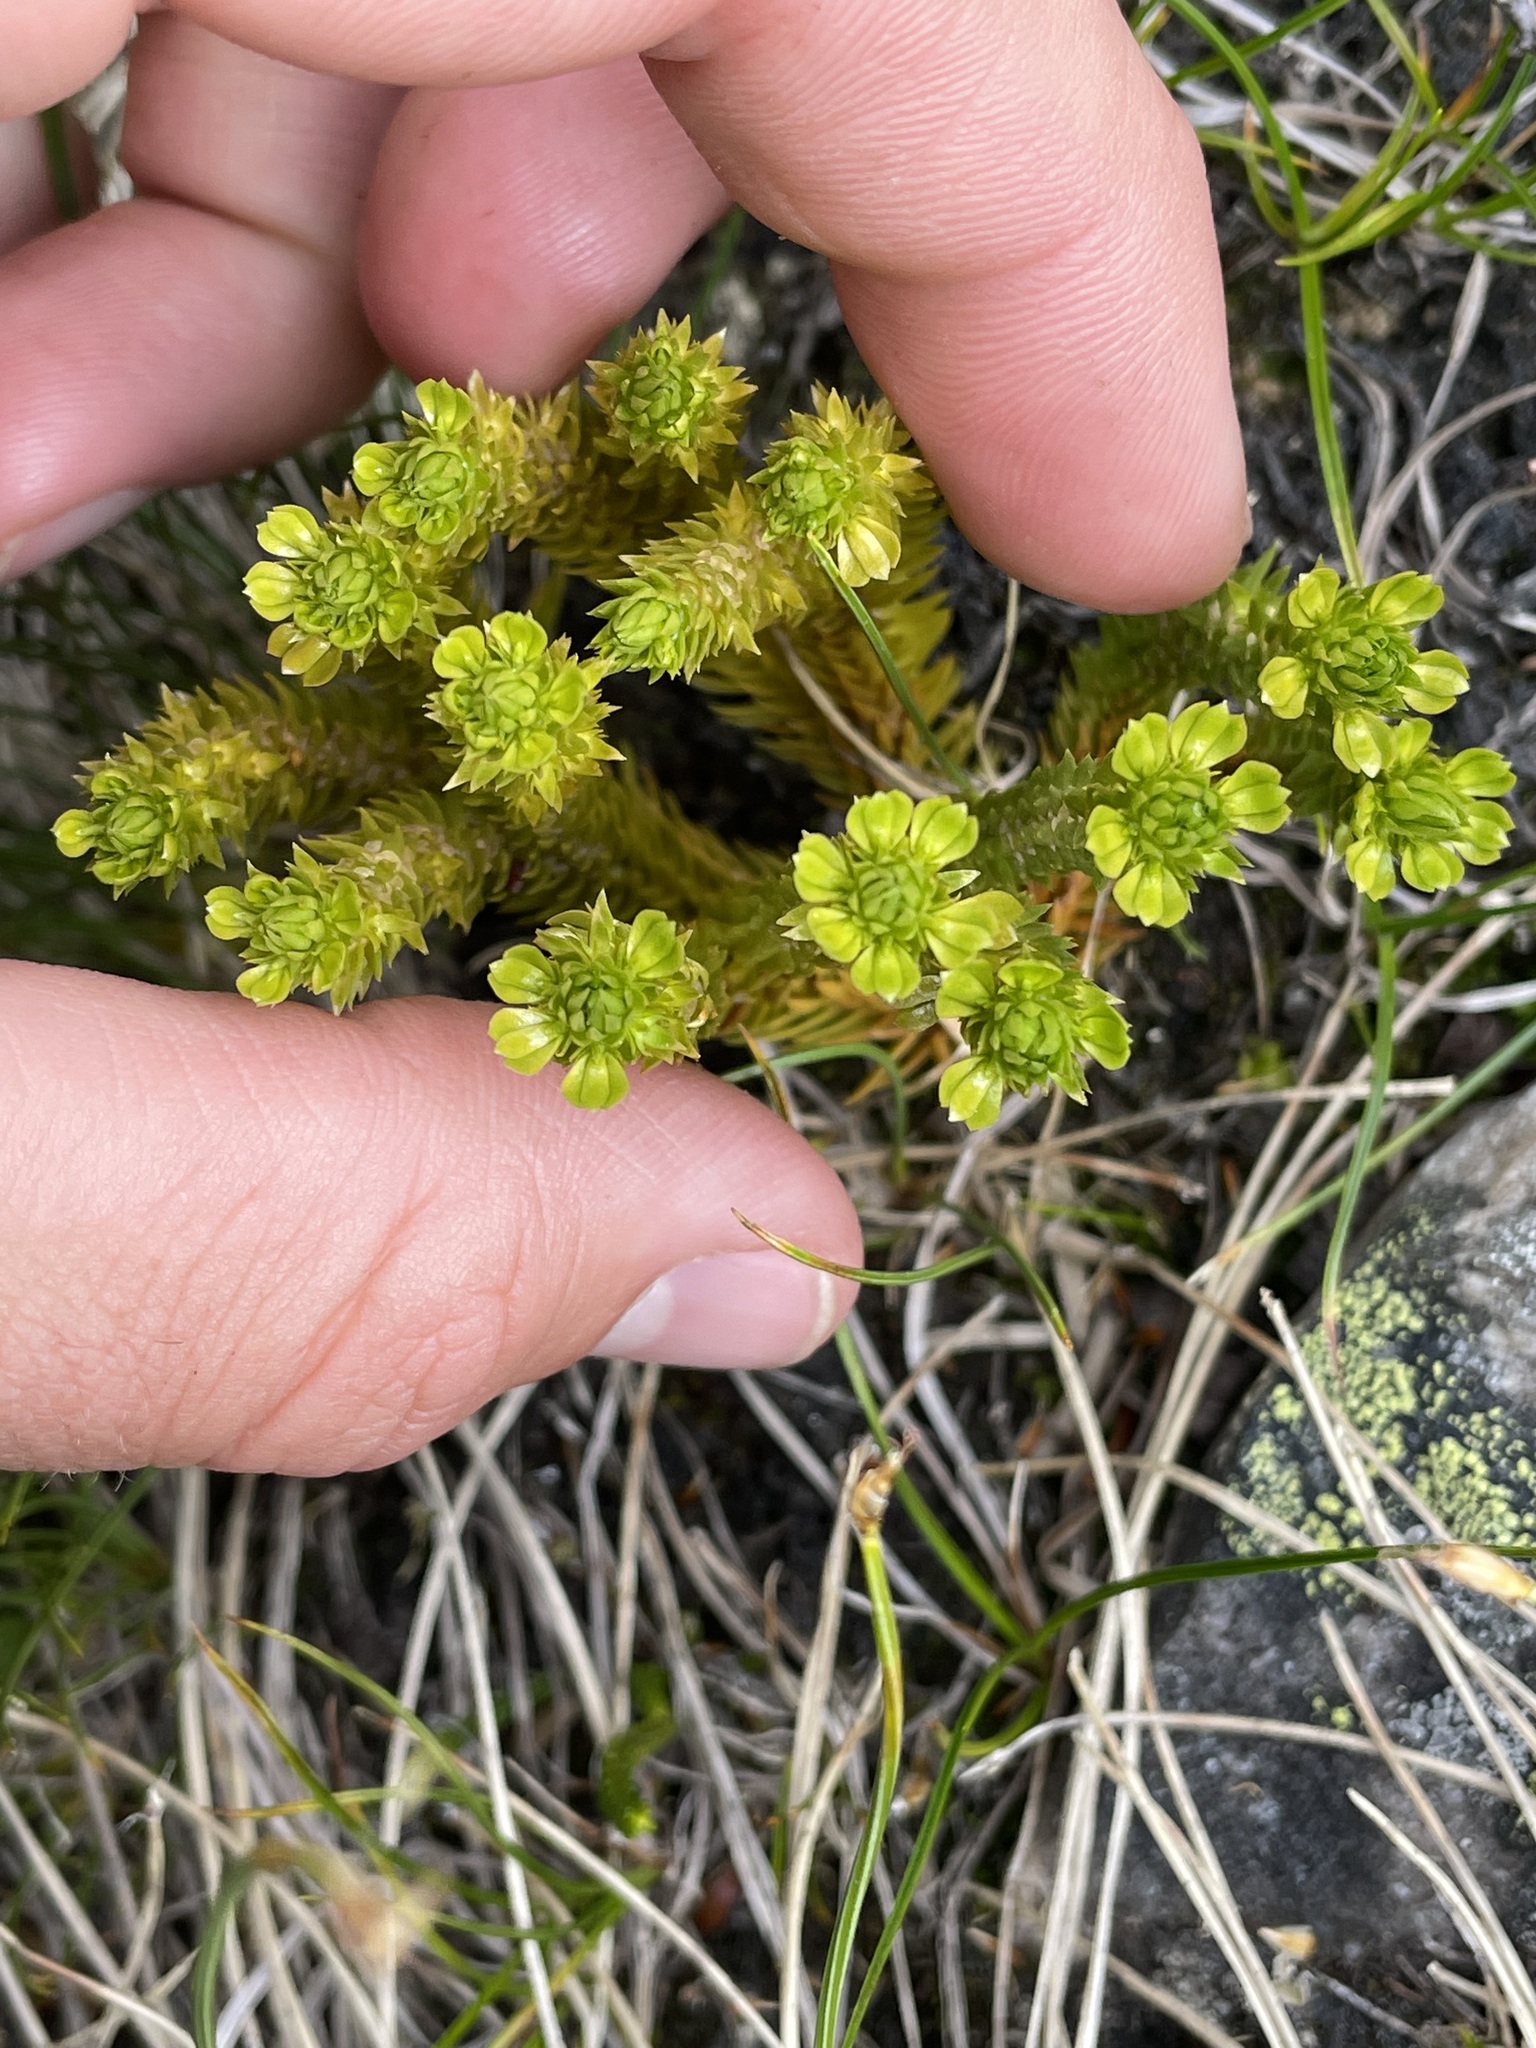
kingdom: Plantae
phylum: Tracheophyta
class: Lycopodiopsida
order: Lycopodiales
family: Lycopodiaceae
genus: Huperzia
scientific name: Huperzia continentalis
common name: Continental firmoss
